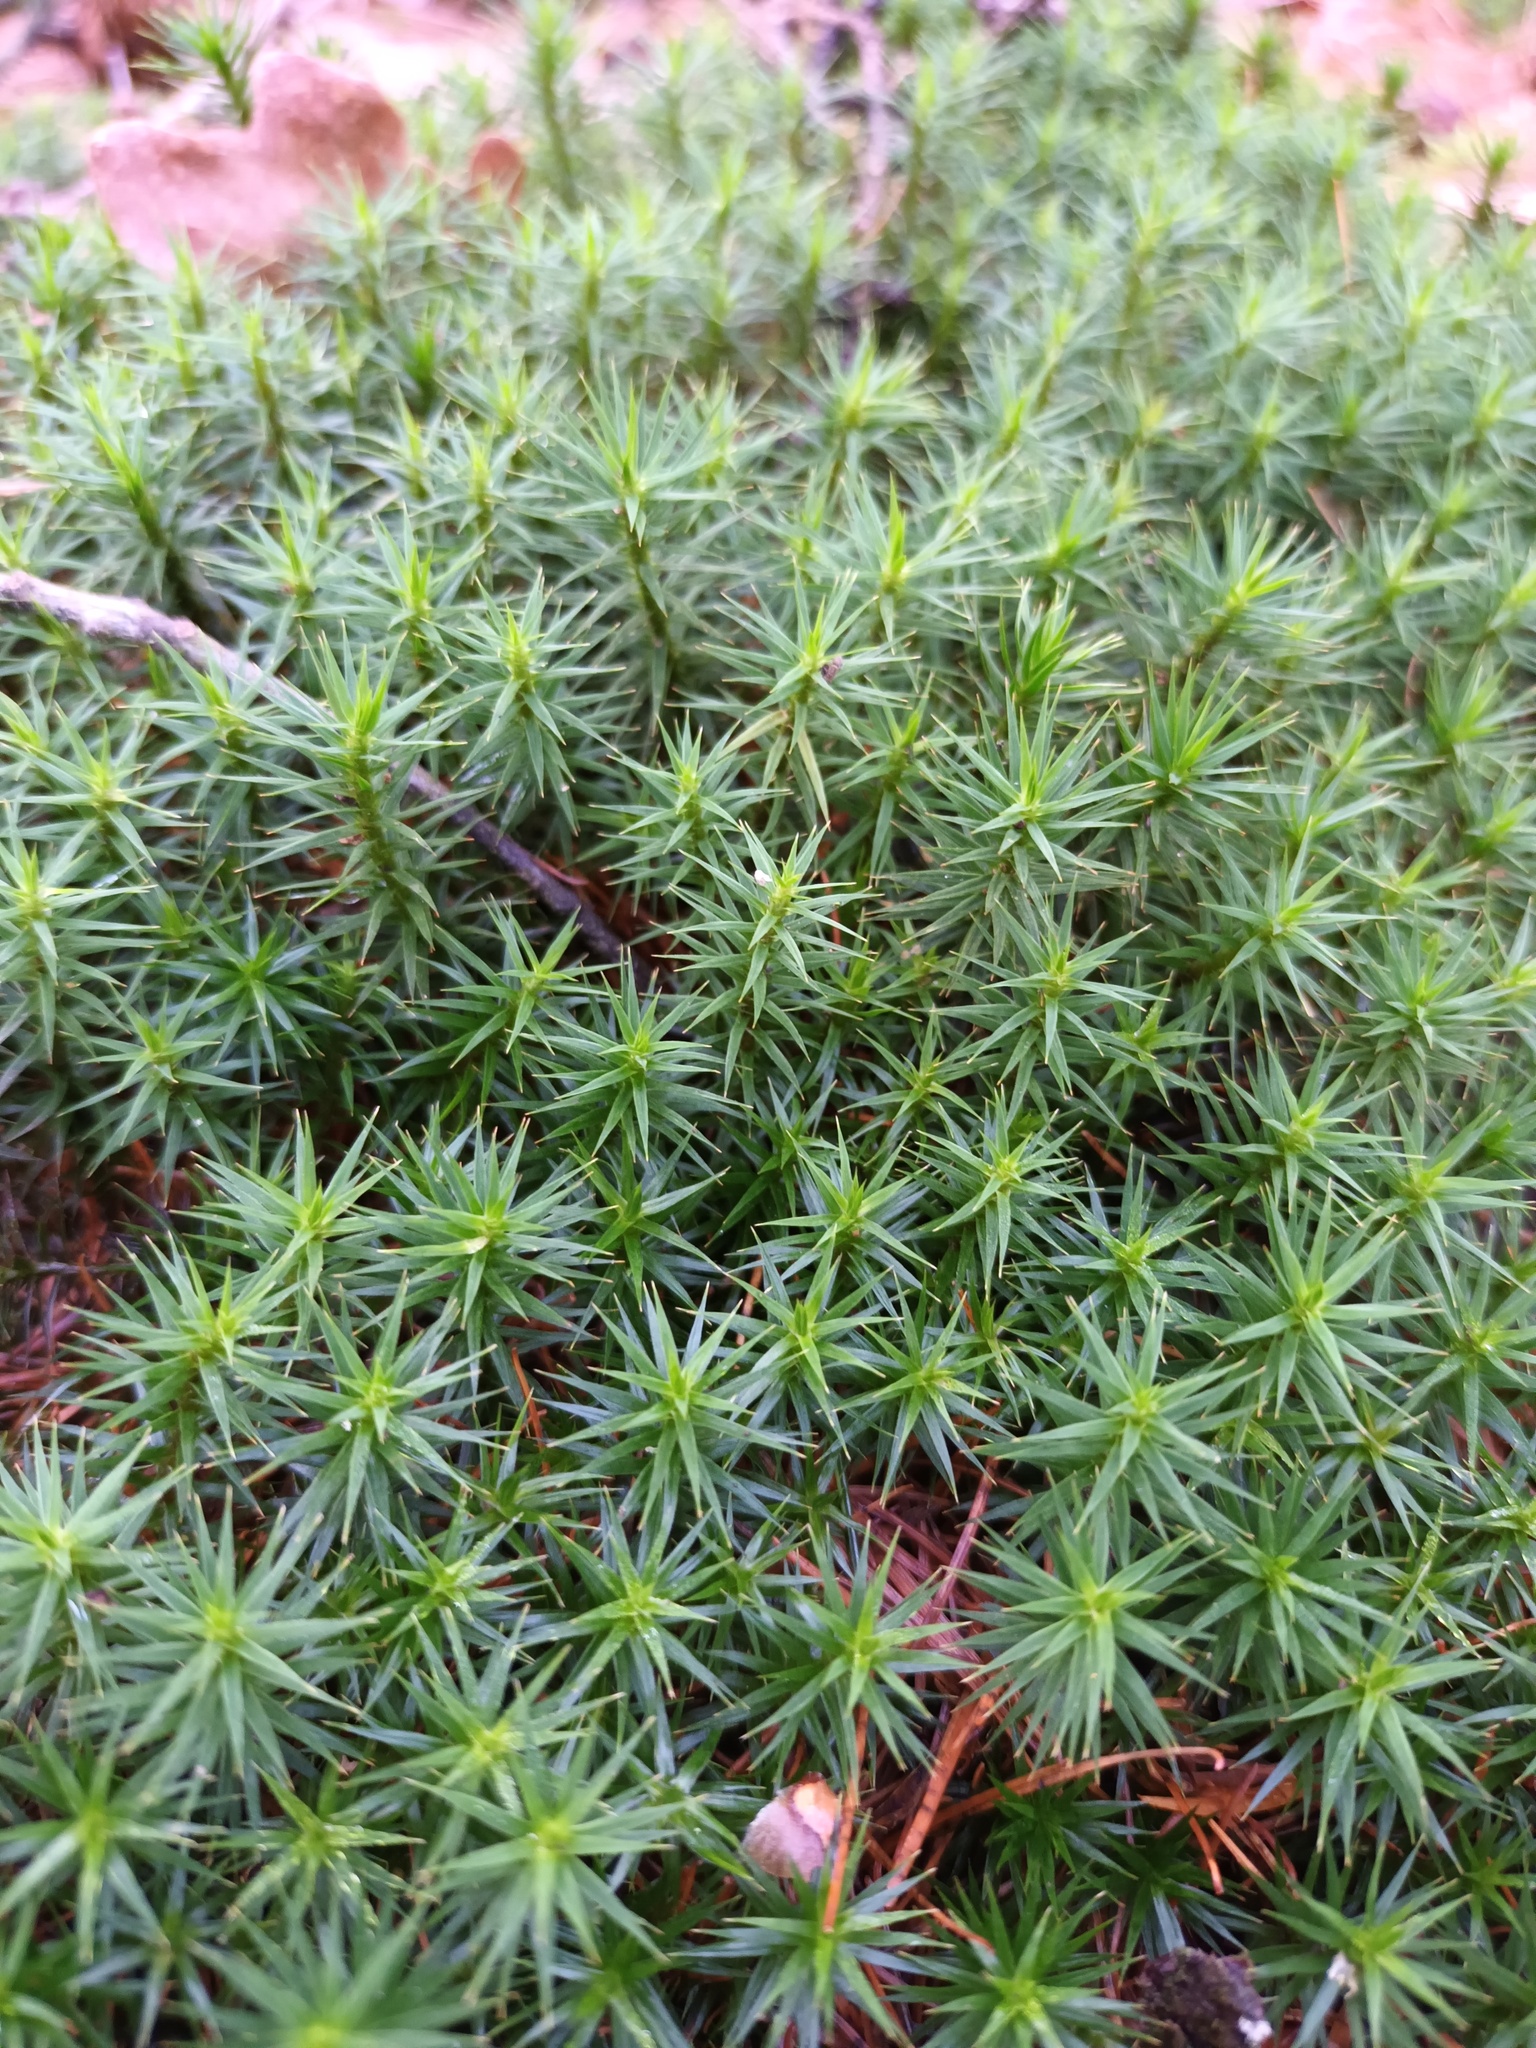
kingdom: Plantae
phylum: Bryophyta
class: Polytrichopsida
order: Polytrichales
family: Polytrichaceae
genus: Polytrichum
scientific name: Polytrichum formosum
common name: Bank haircap moss
